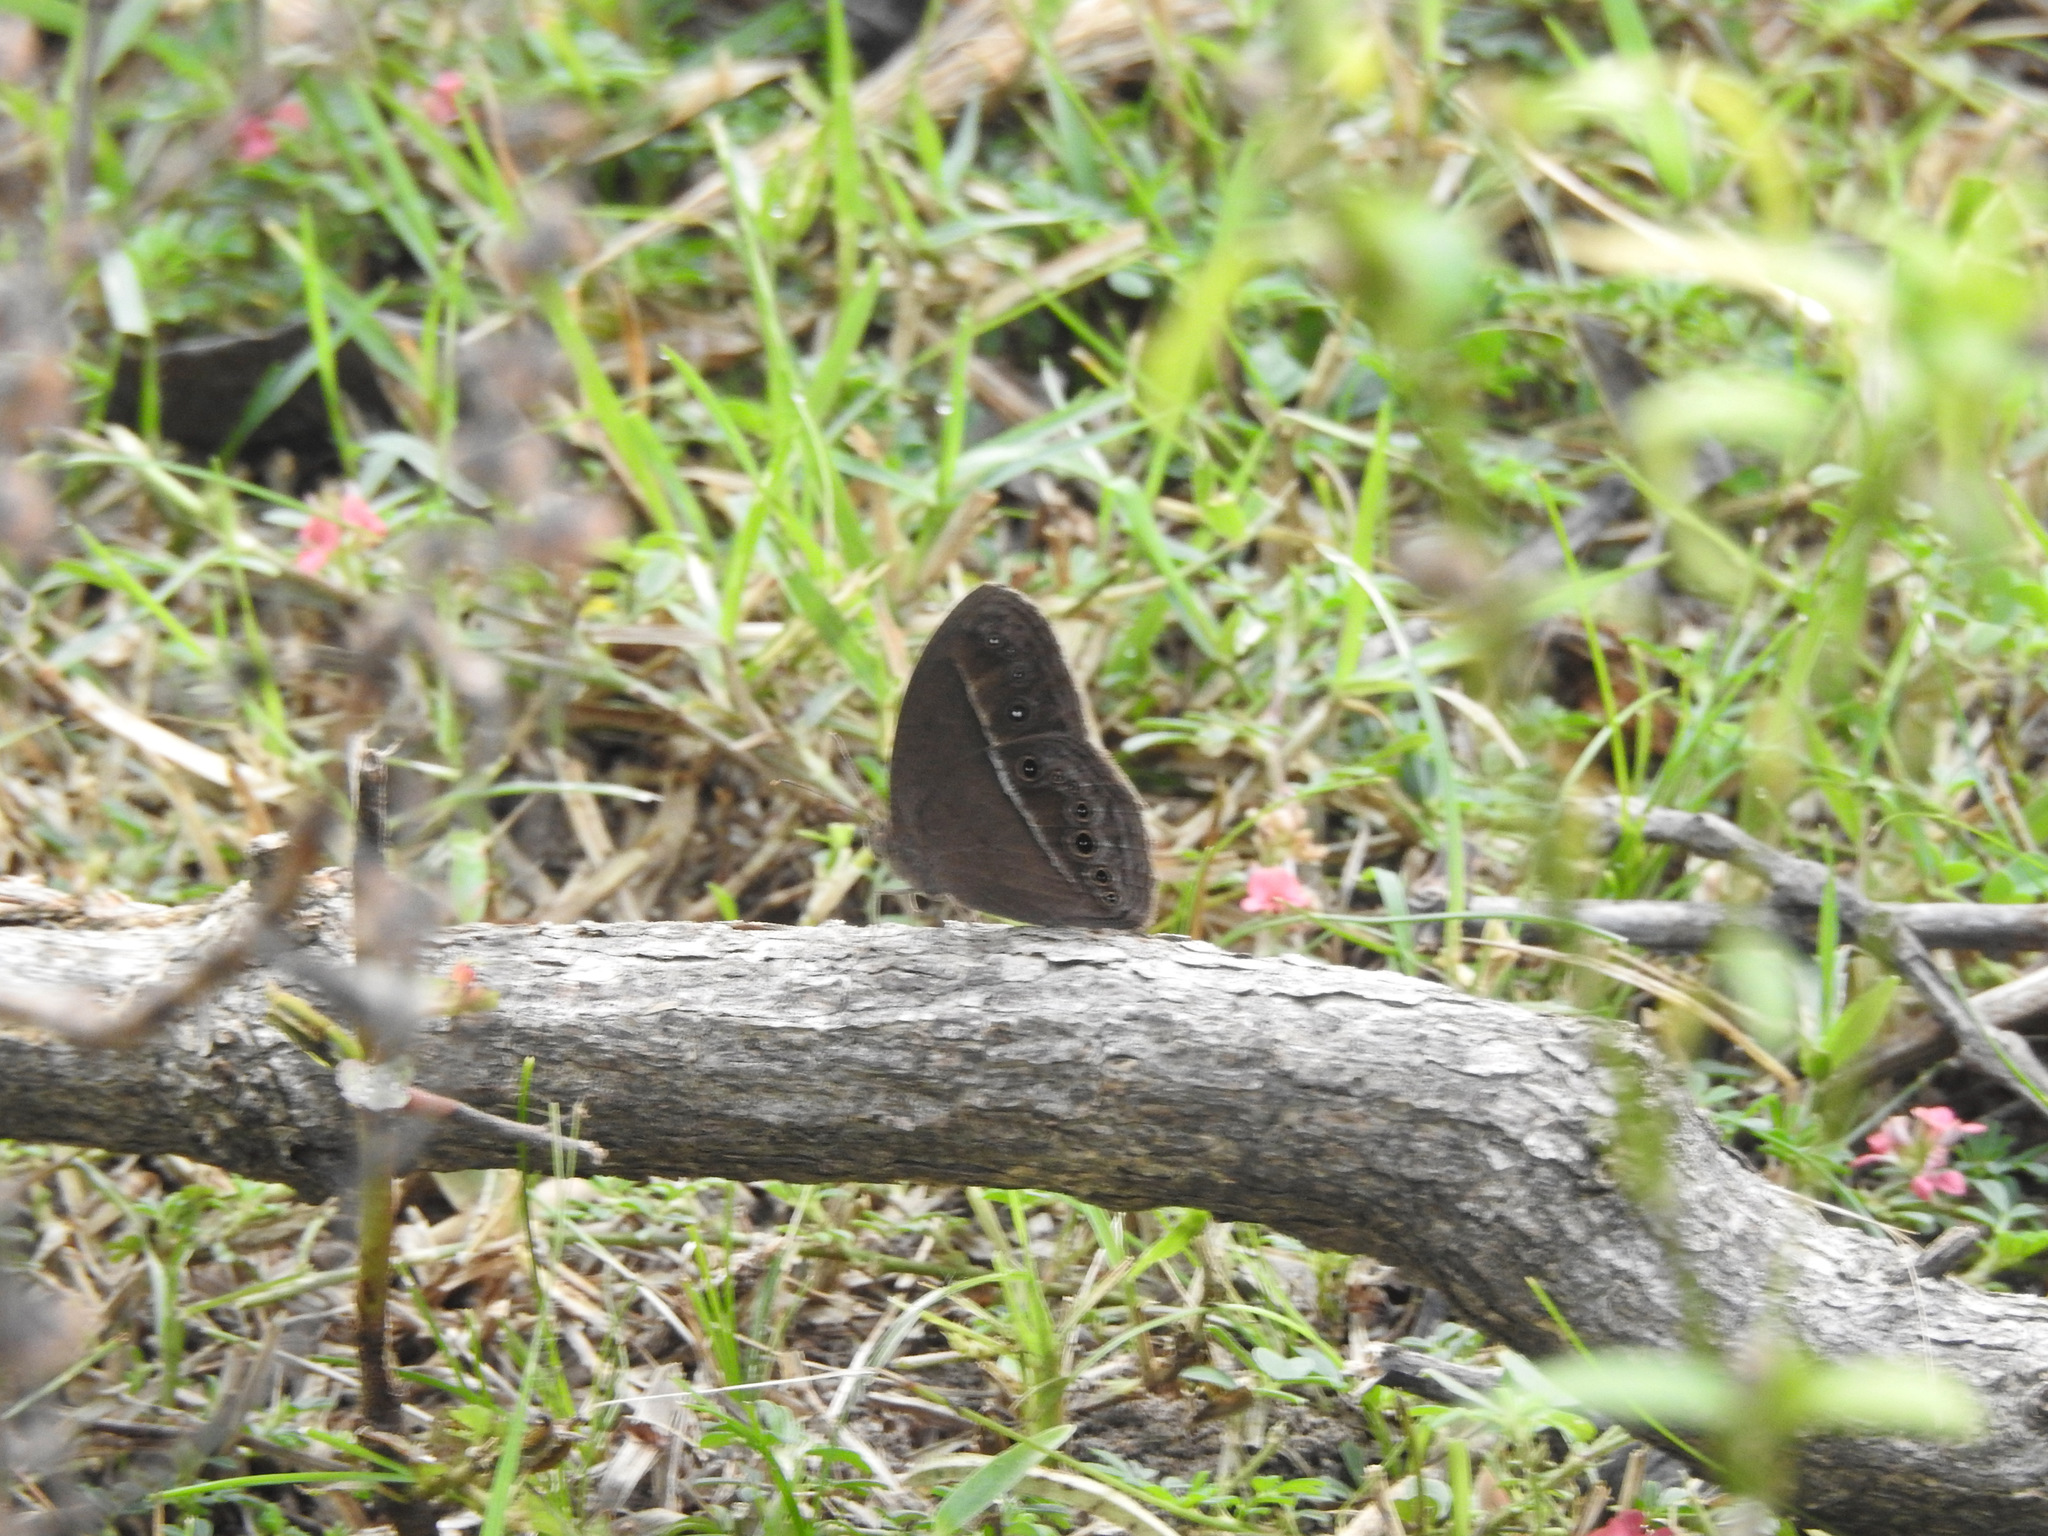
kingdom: Animalia
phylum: Arthropoda
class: Insecta
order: Lepidoptera
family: Nymphalidae
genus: Mycalesis
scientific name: Mycalesis perseus
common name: Dingy bushbrown
